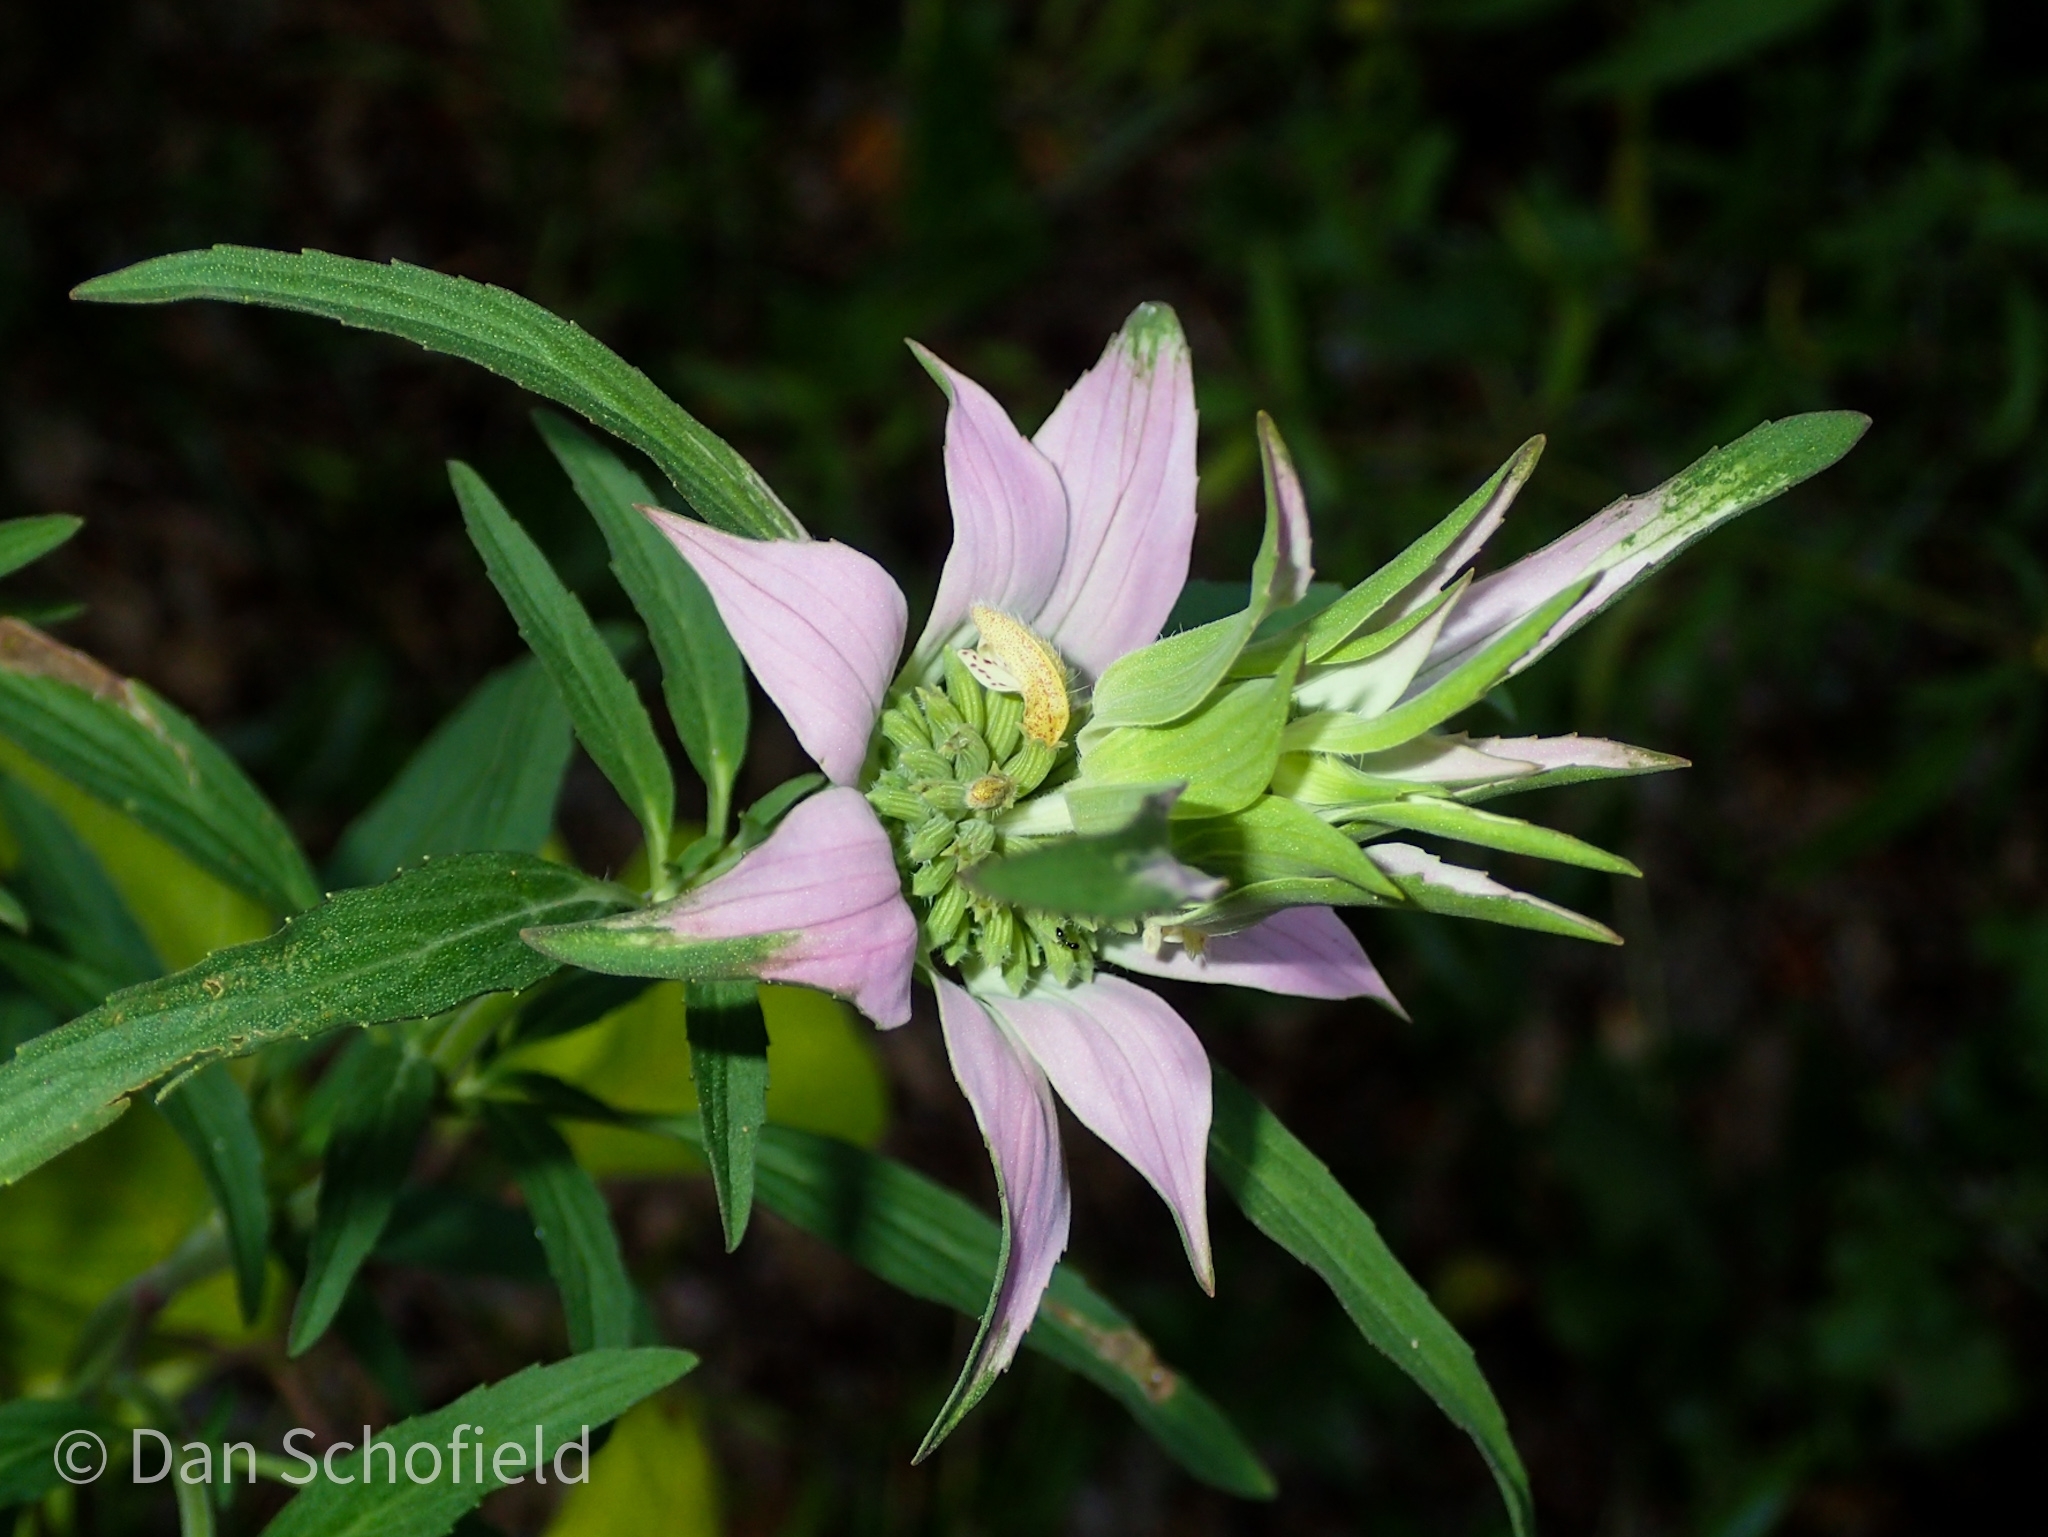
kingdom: Plantae
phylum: Tracheophyta
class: Magnoliopsida
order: Lamiales
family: Lamiaceae
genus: Monarda
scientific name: Monarda punctata
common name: Dotted monarda
